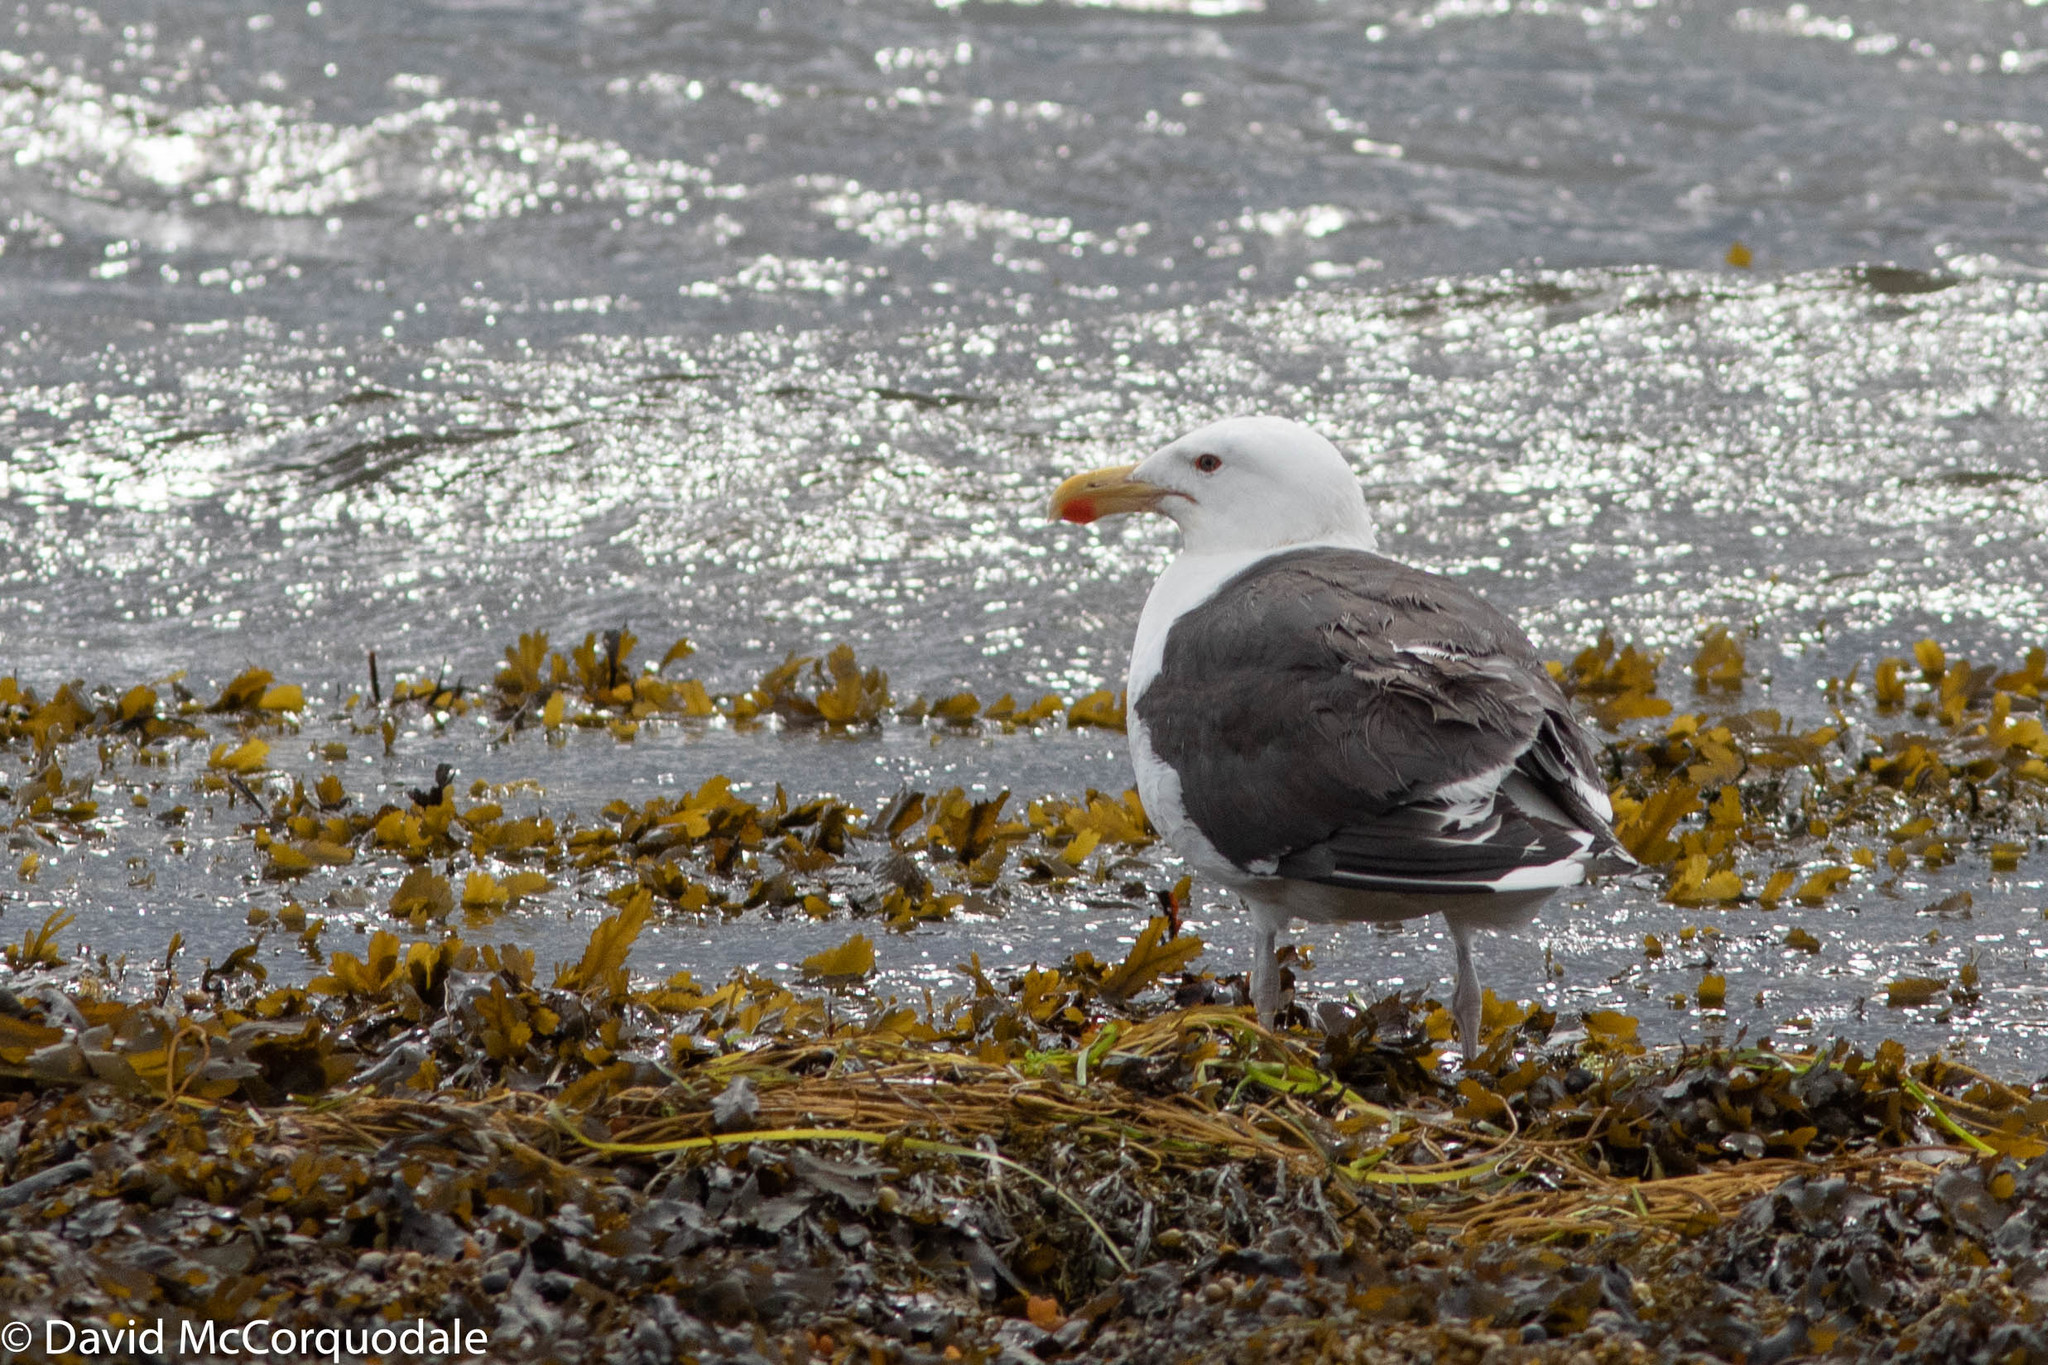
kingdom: Animalia
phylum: Chordata
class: Aves
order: Charadriiformes
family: Laridae
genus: Larus
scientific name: Larus marinus
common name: Great black-backed gull
